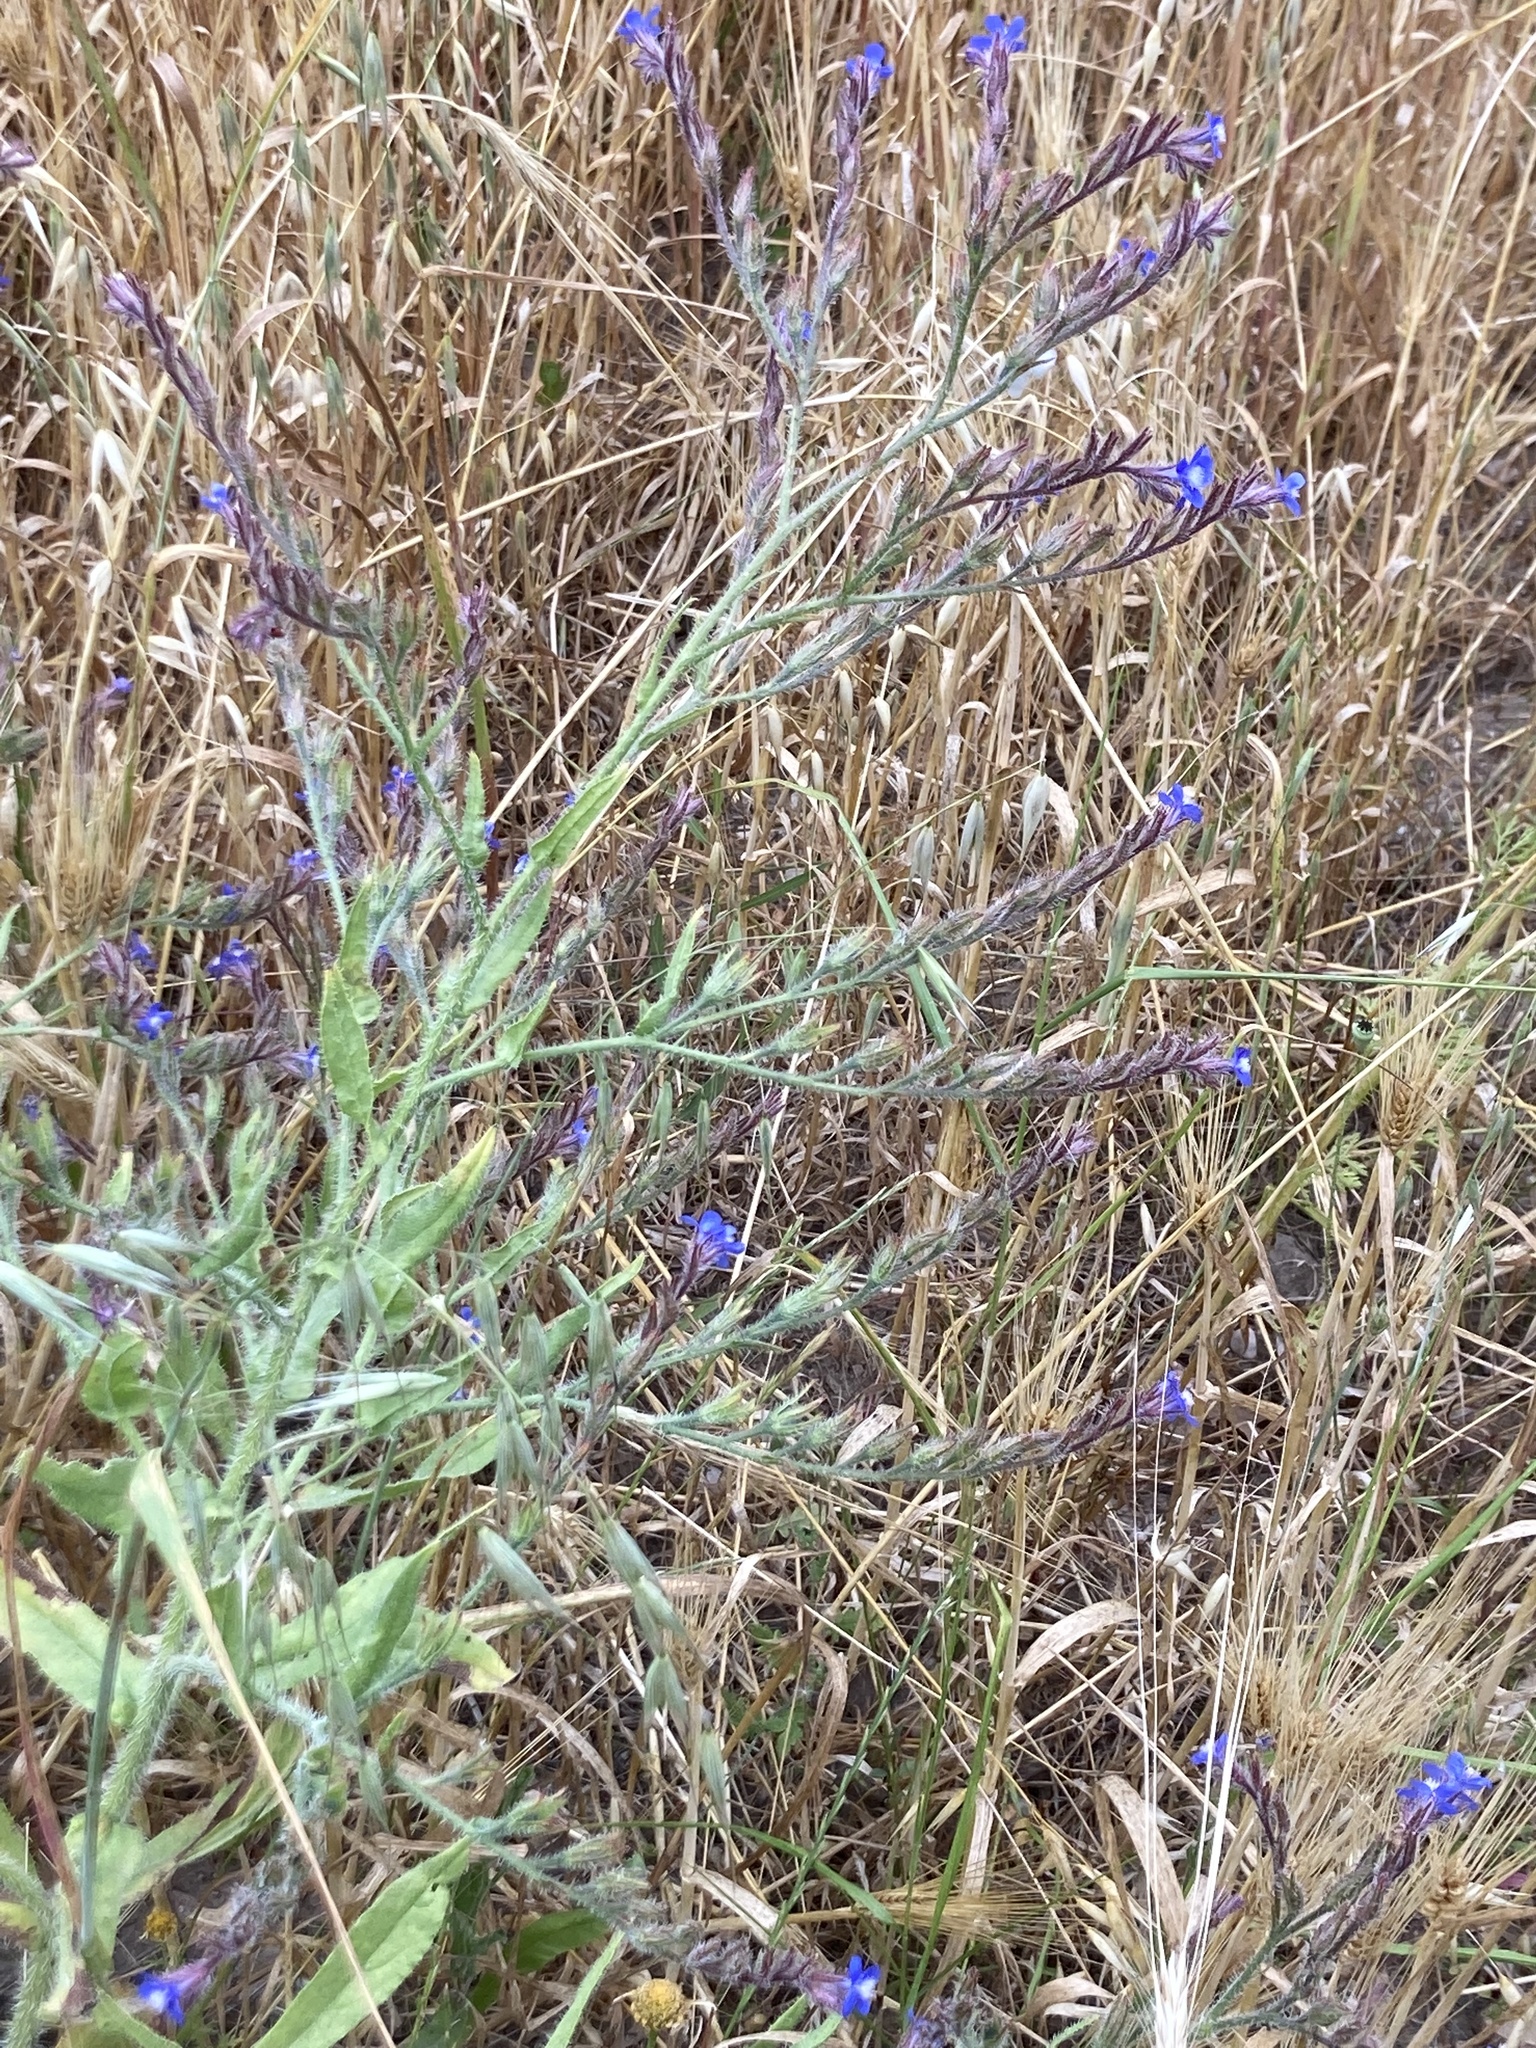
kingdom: Plantae
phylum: Tracheophyta
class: Magnoliopsida
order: Boraginales
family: Boraginaceae
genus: Anchusa
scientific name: Anchusa azurea
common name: Garden anchusa
